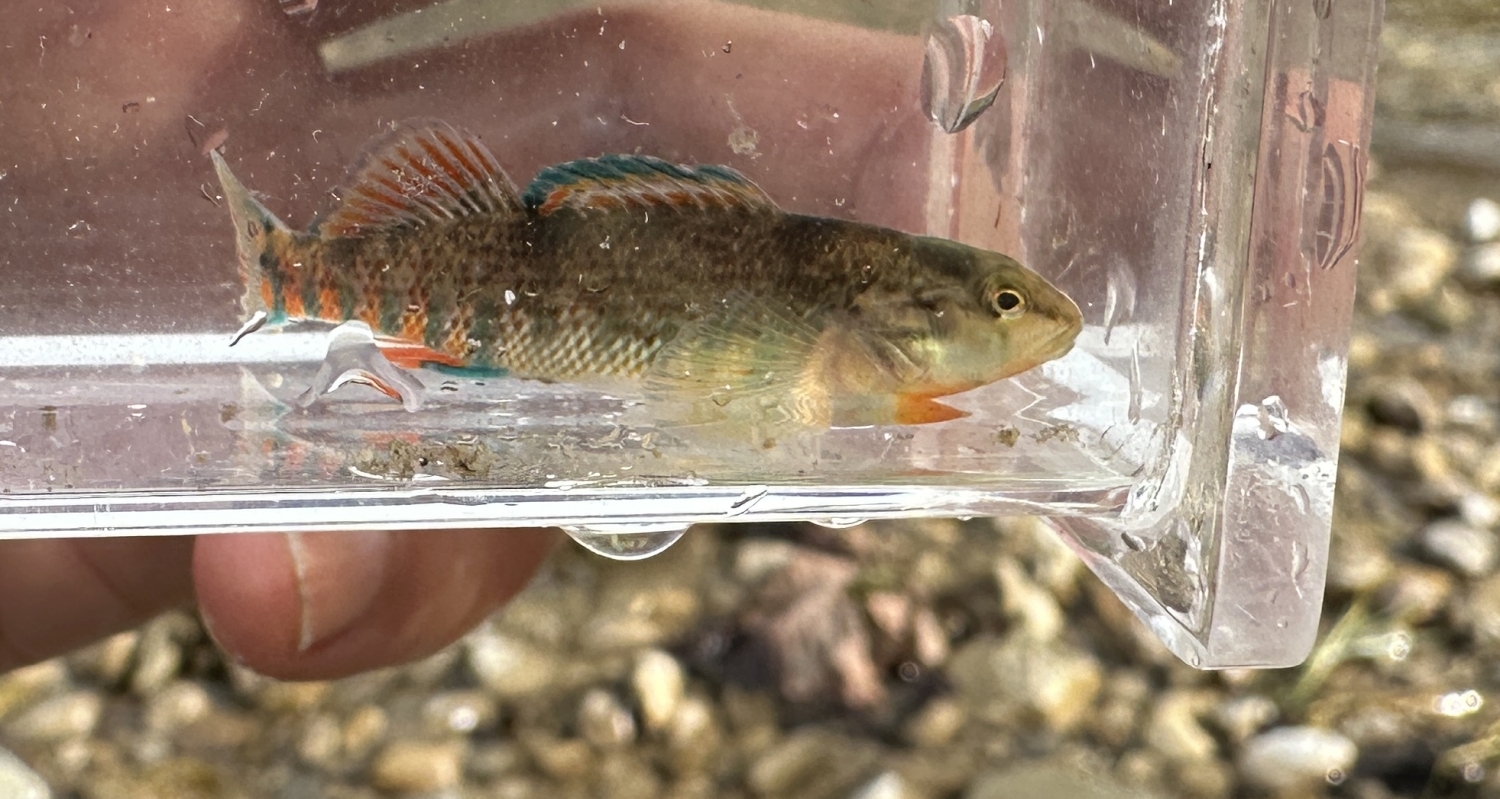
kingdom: Animalia
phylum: Chordata
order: Perciformes
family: Percidae
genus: Etheostoma
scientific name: Etheostoma caeruleum
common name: Rainbow darter
